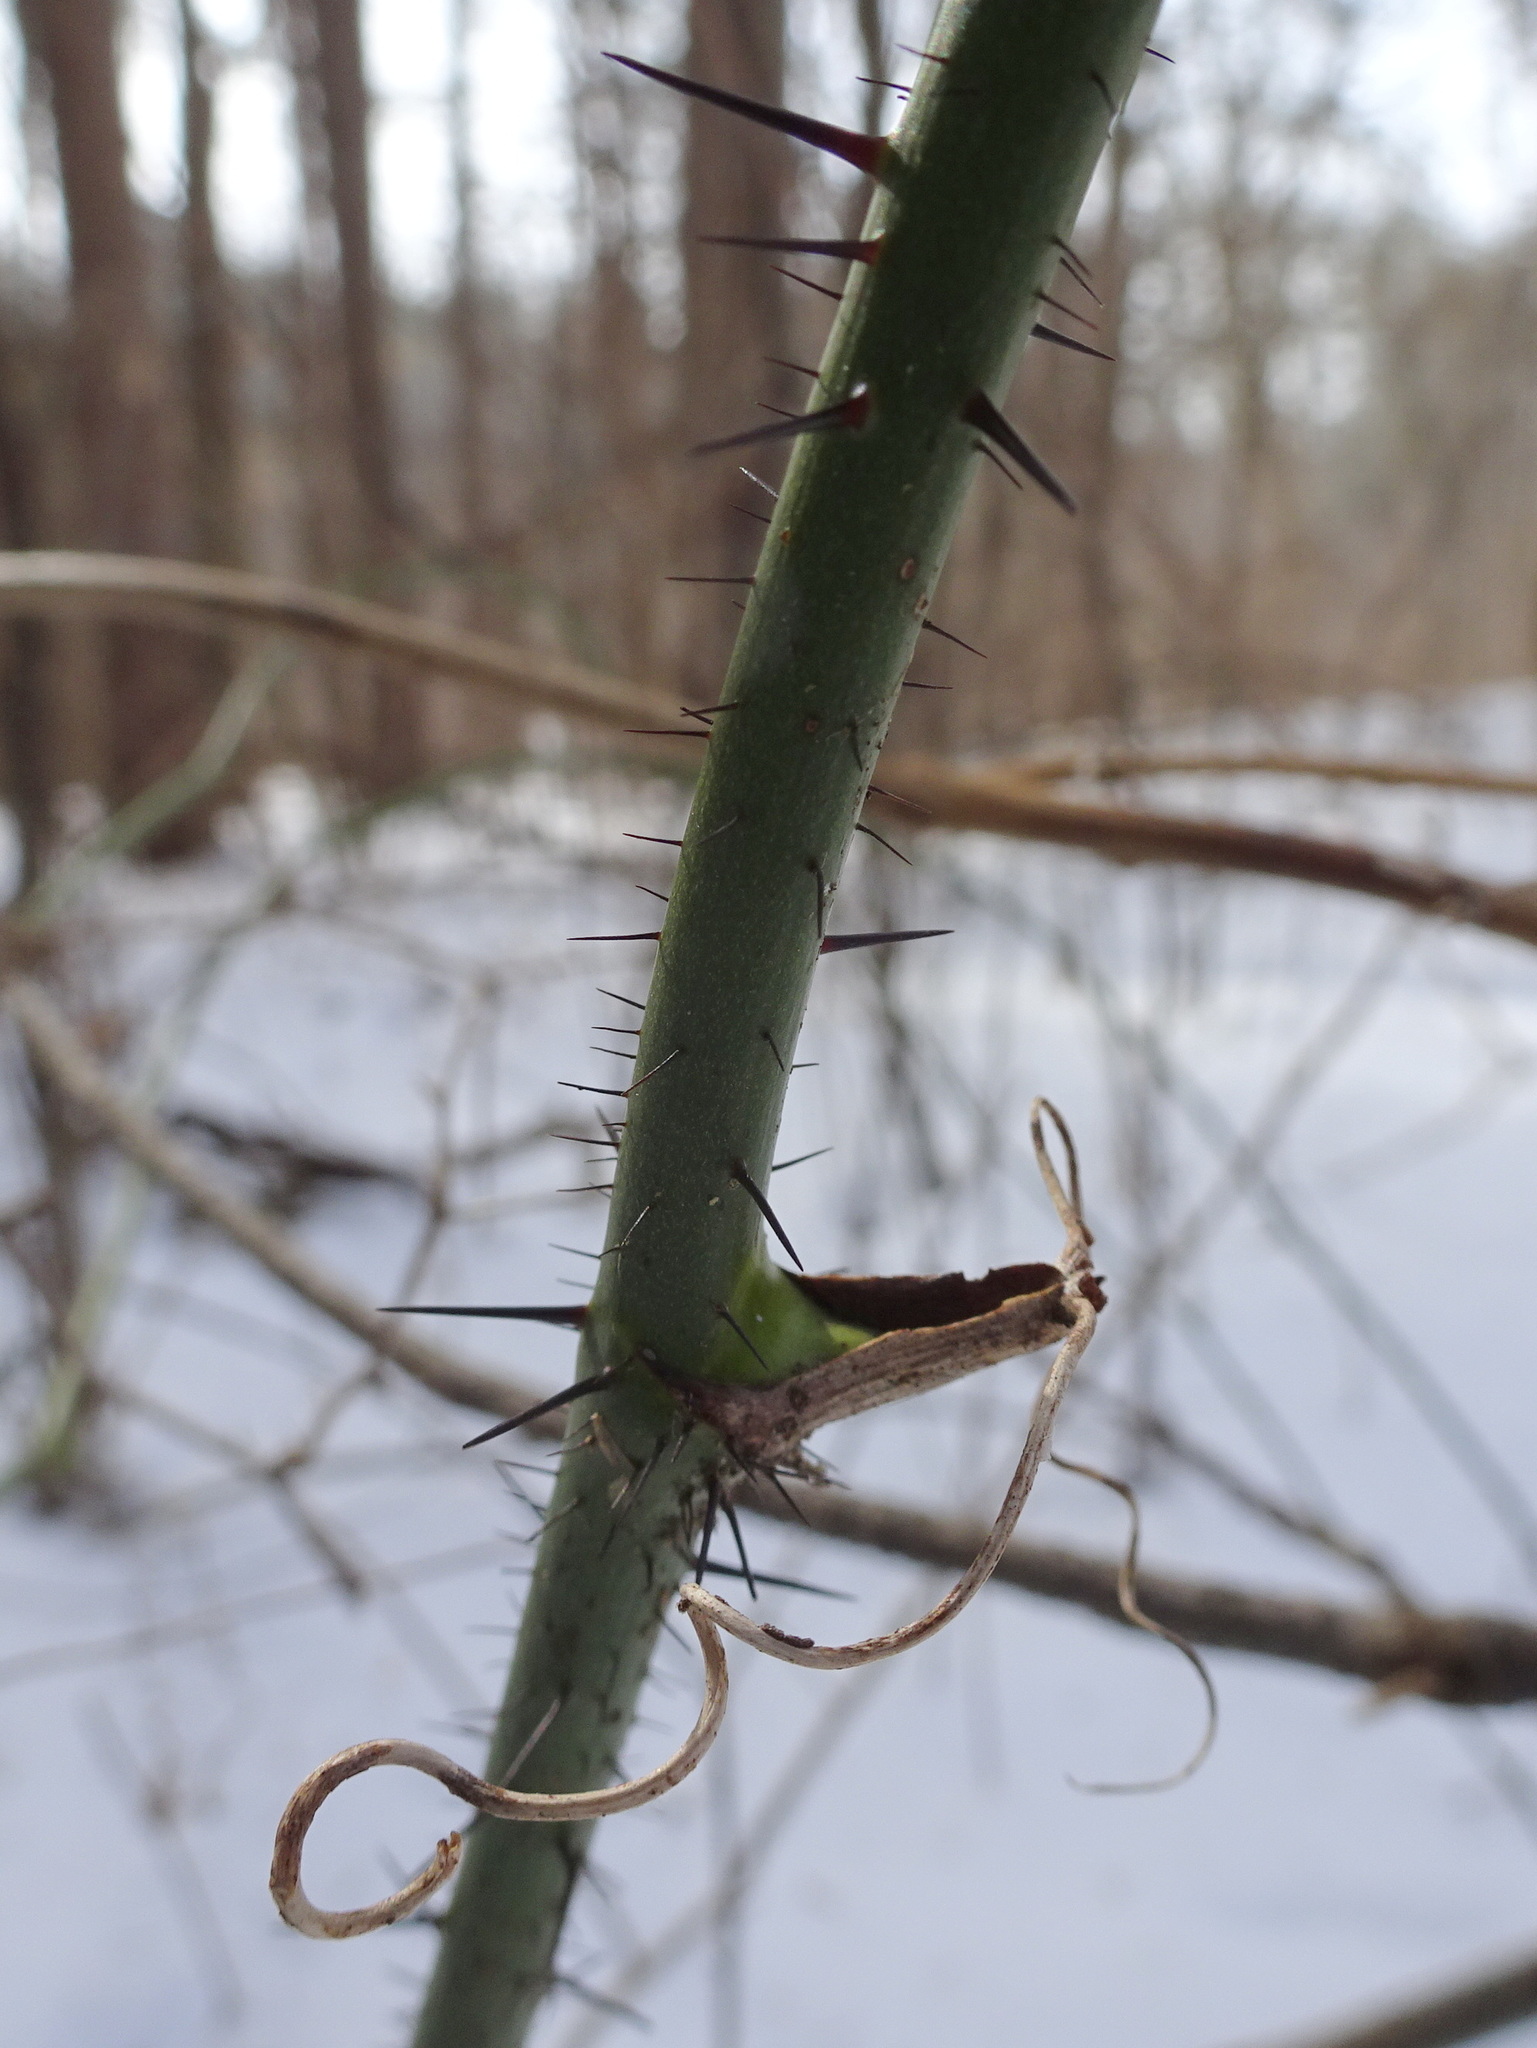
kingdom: Plantae
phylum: Tracheophyta
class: Liliopsida
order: Liliales
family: Smilacaceae
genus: Smilax
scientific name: Smilax tamnoides
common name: Hellfetter
